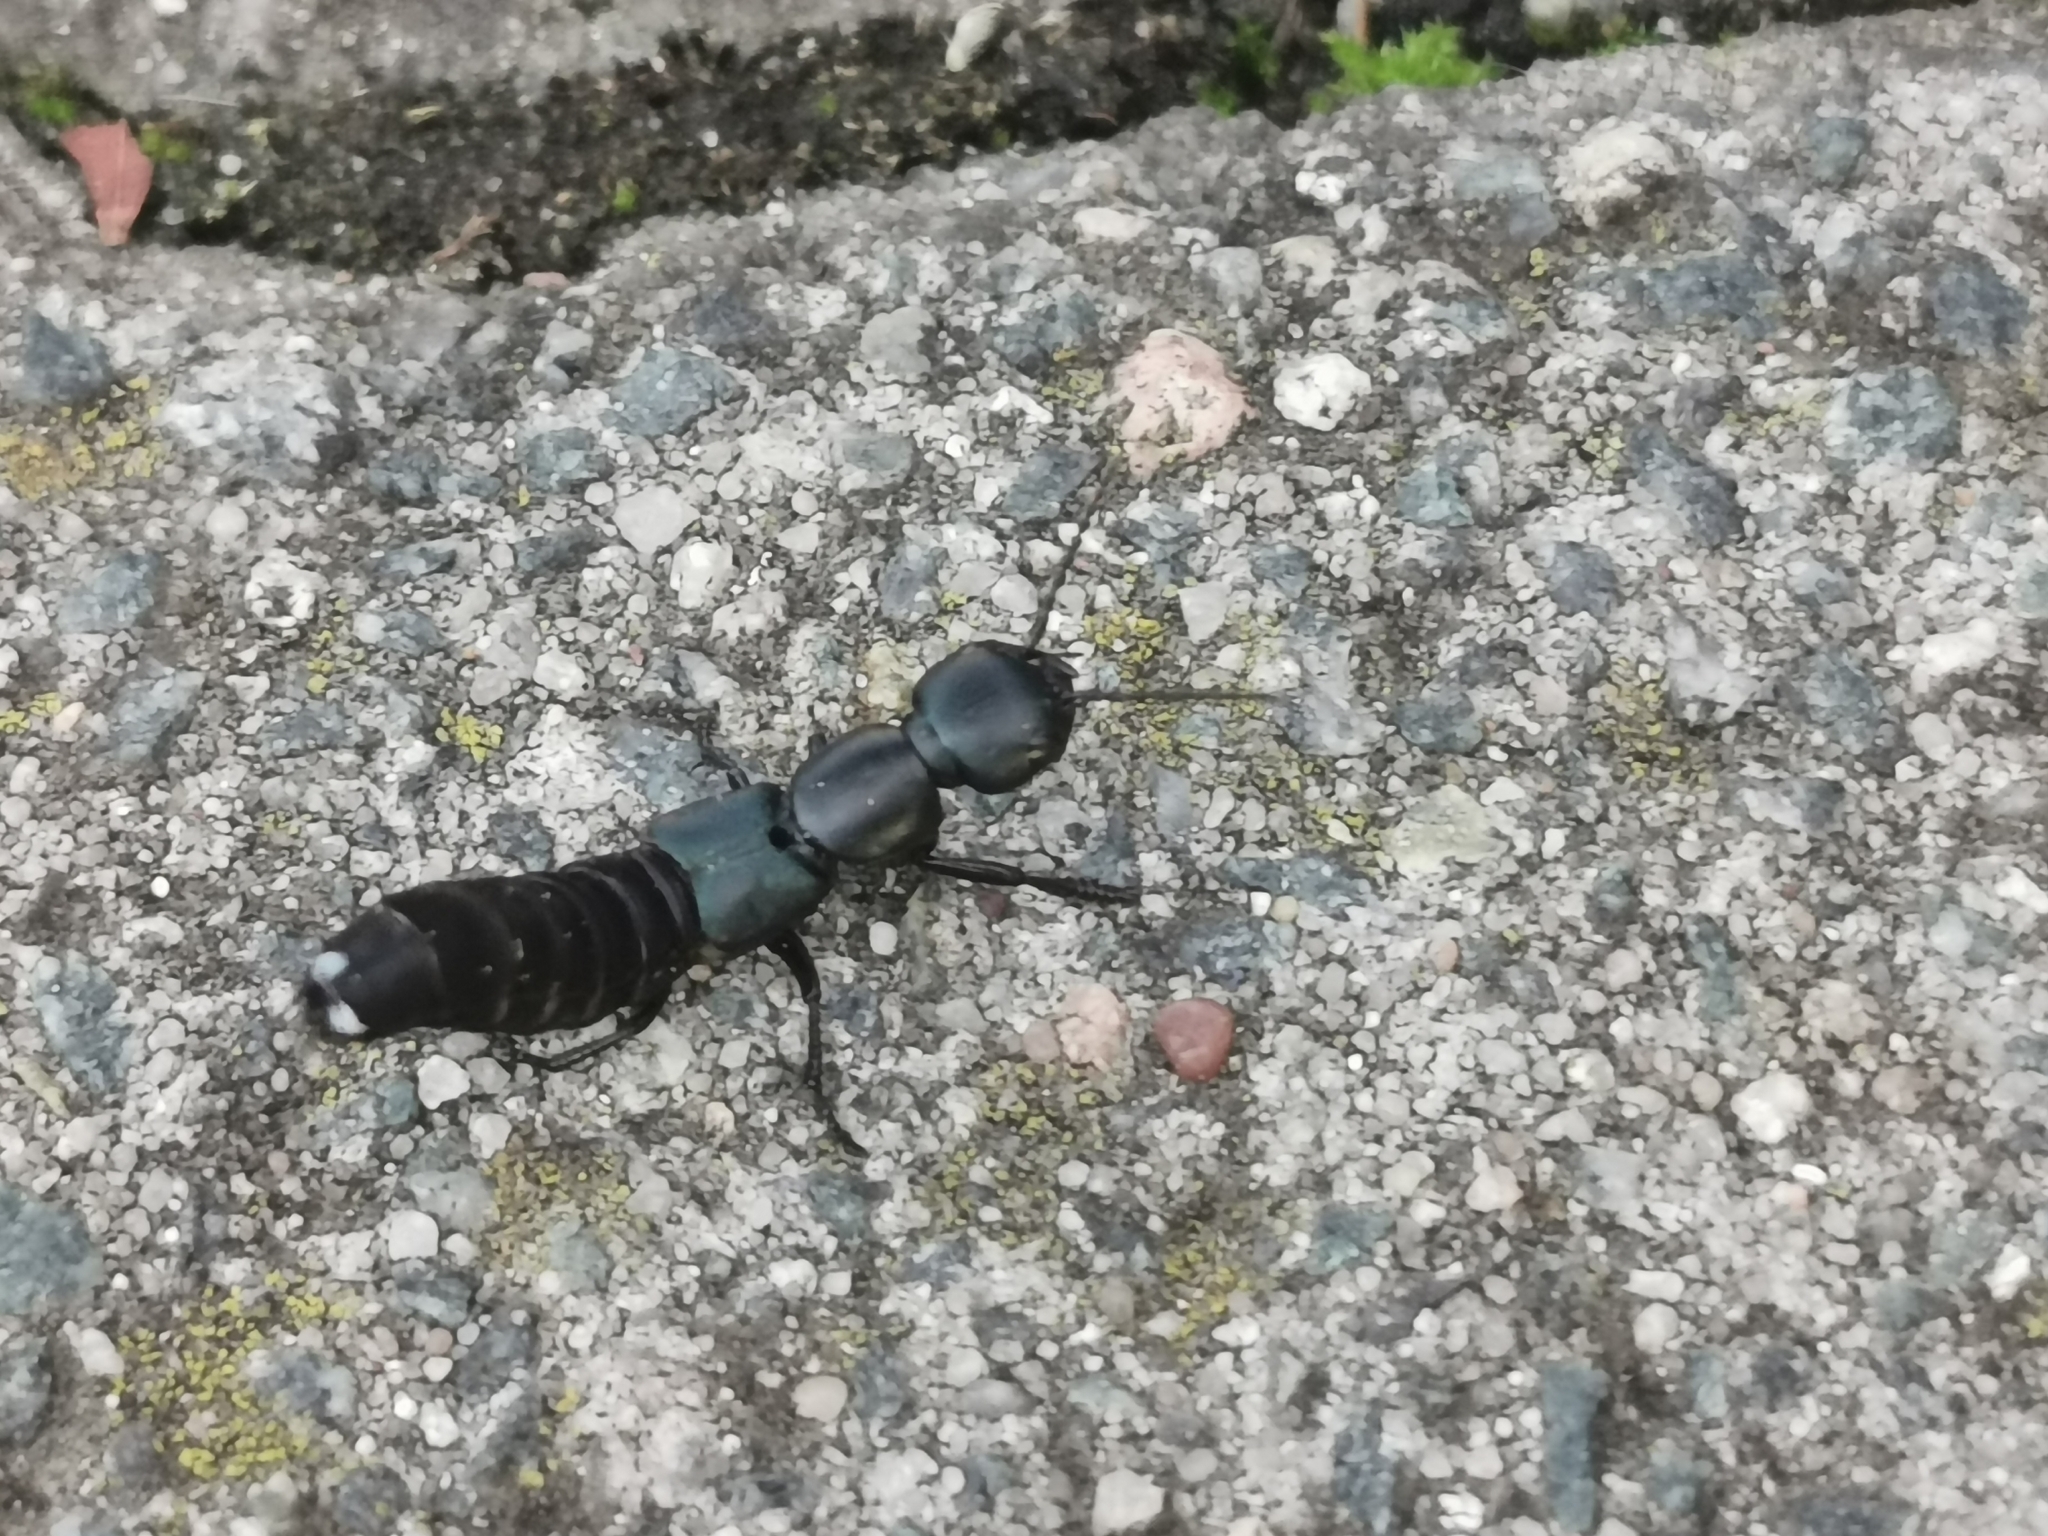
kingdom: Animalia
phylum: Arthropoda
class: Insecta
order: Coleoptera
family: Staphylinidae
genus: Ocypus
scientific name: Ocypus ophthalmicus
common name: Blue rove-beetle
